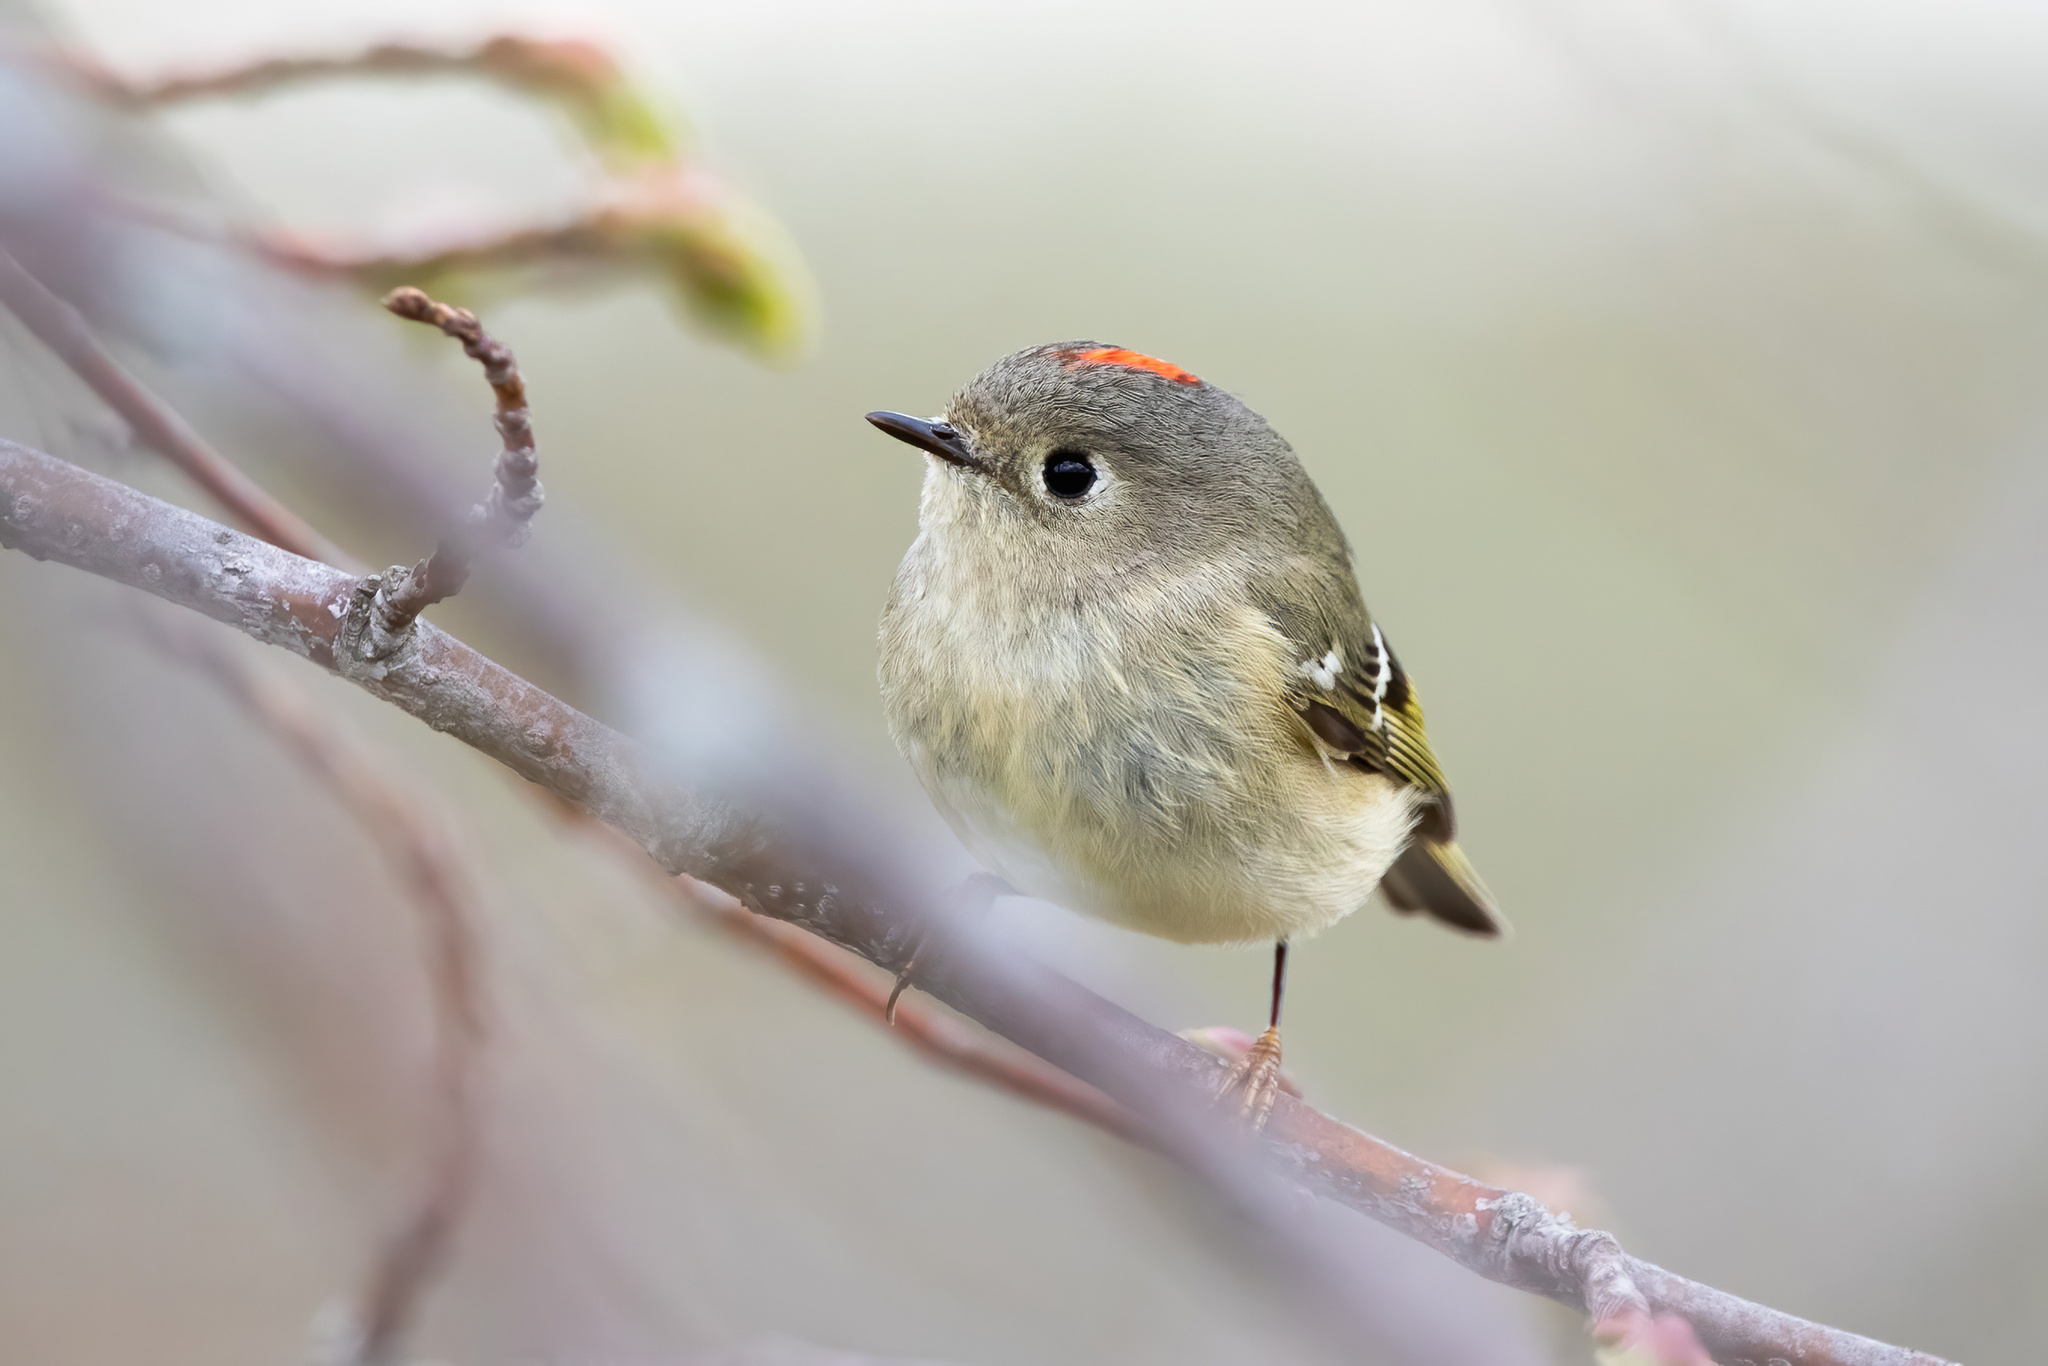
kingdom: Animalia
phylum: Chordata
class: Aves
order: Passeriformes
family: Regulidae
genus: Regulus
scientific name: Regulus calendula
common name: Ruby-crowned kinglet
